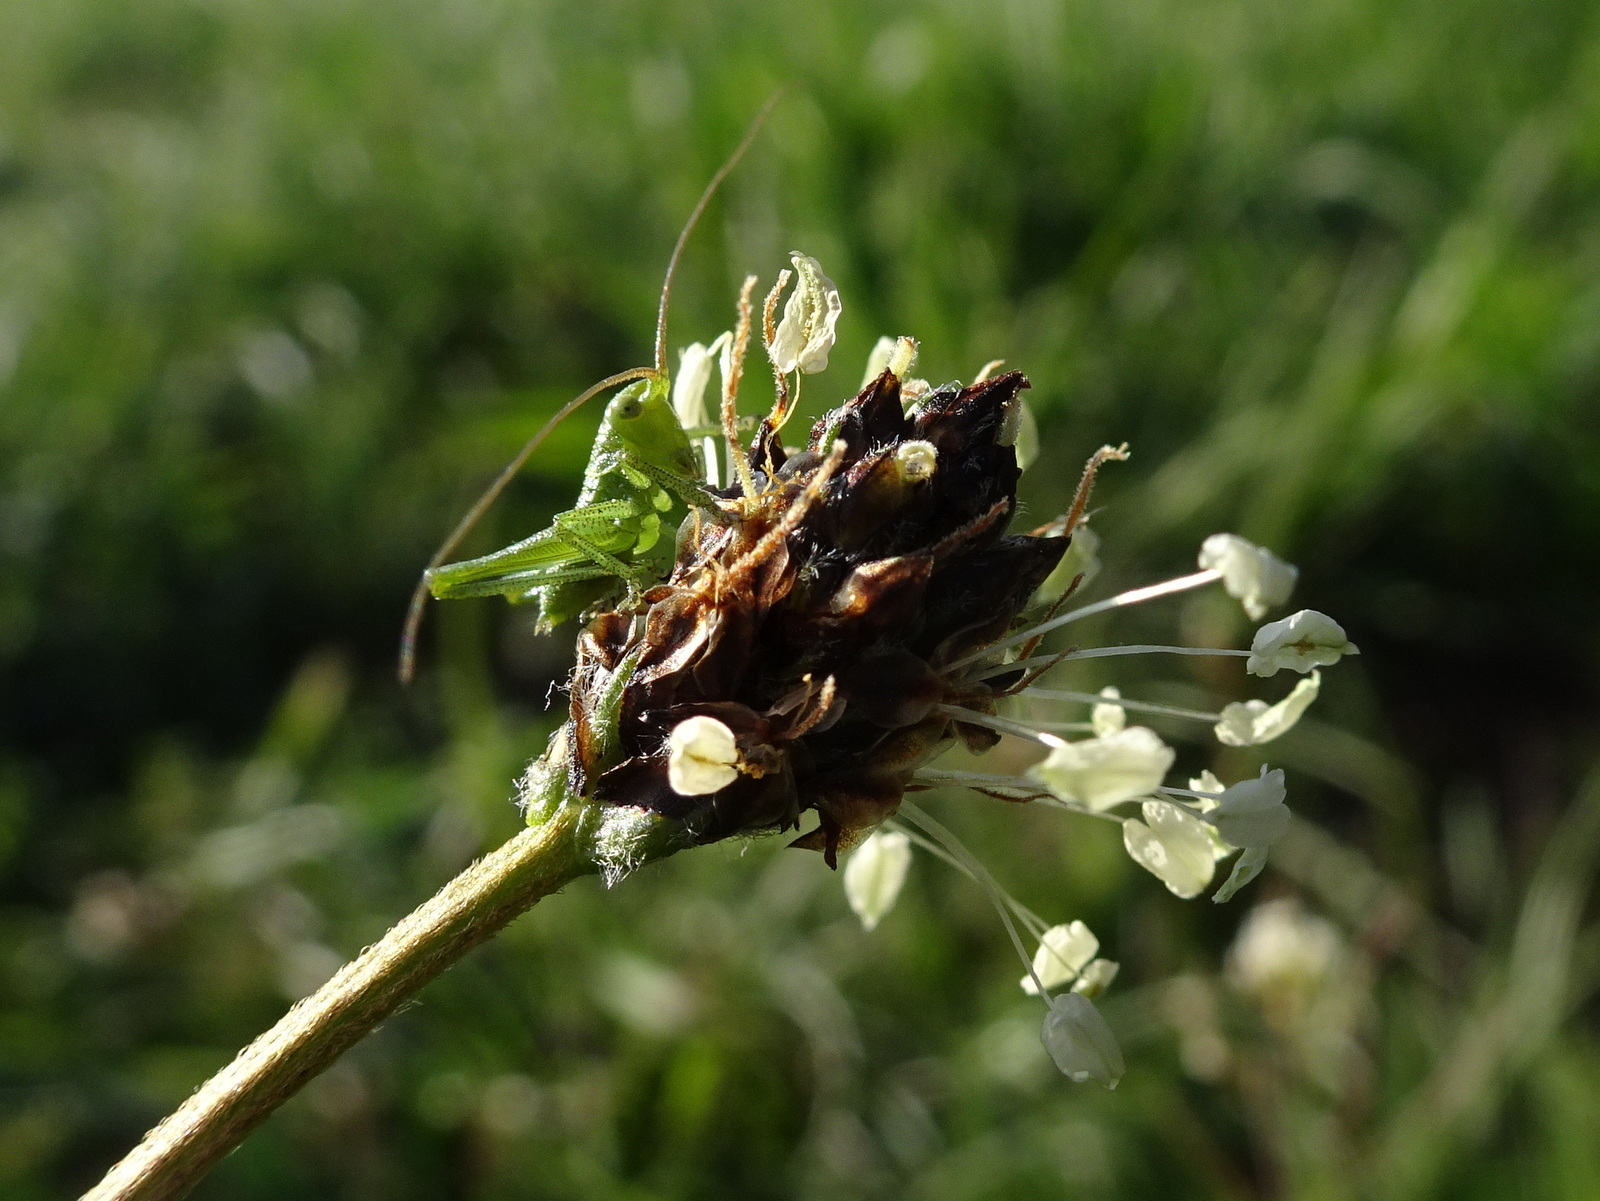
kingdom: Animalia
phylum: Arthropoda
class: Insecta
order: Orthoptera
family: Tettigoniidae
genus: Tettigonia
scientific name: Tettigonia viridissima
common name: Great green bush-cricket
